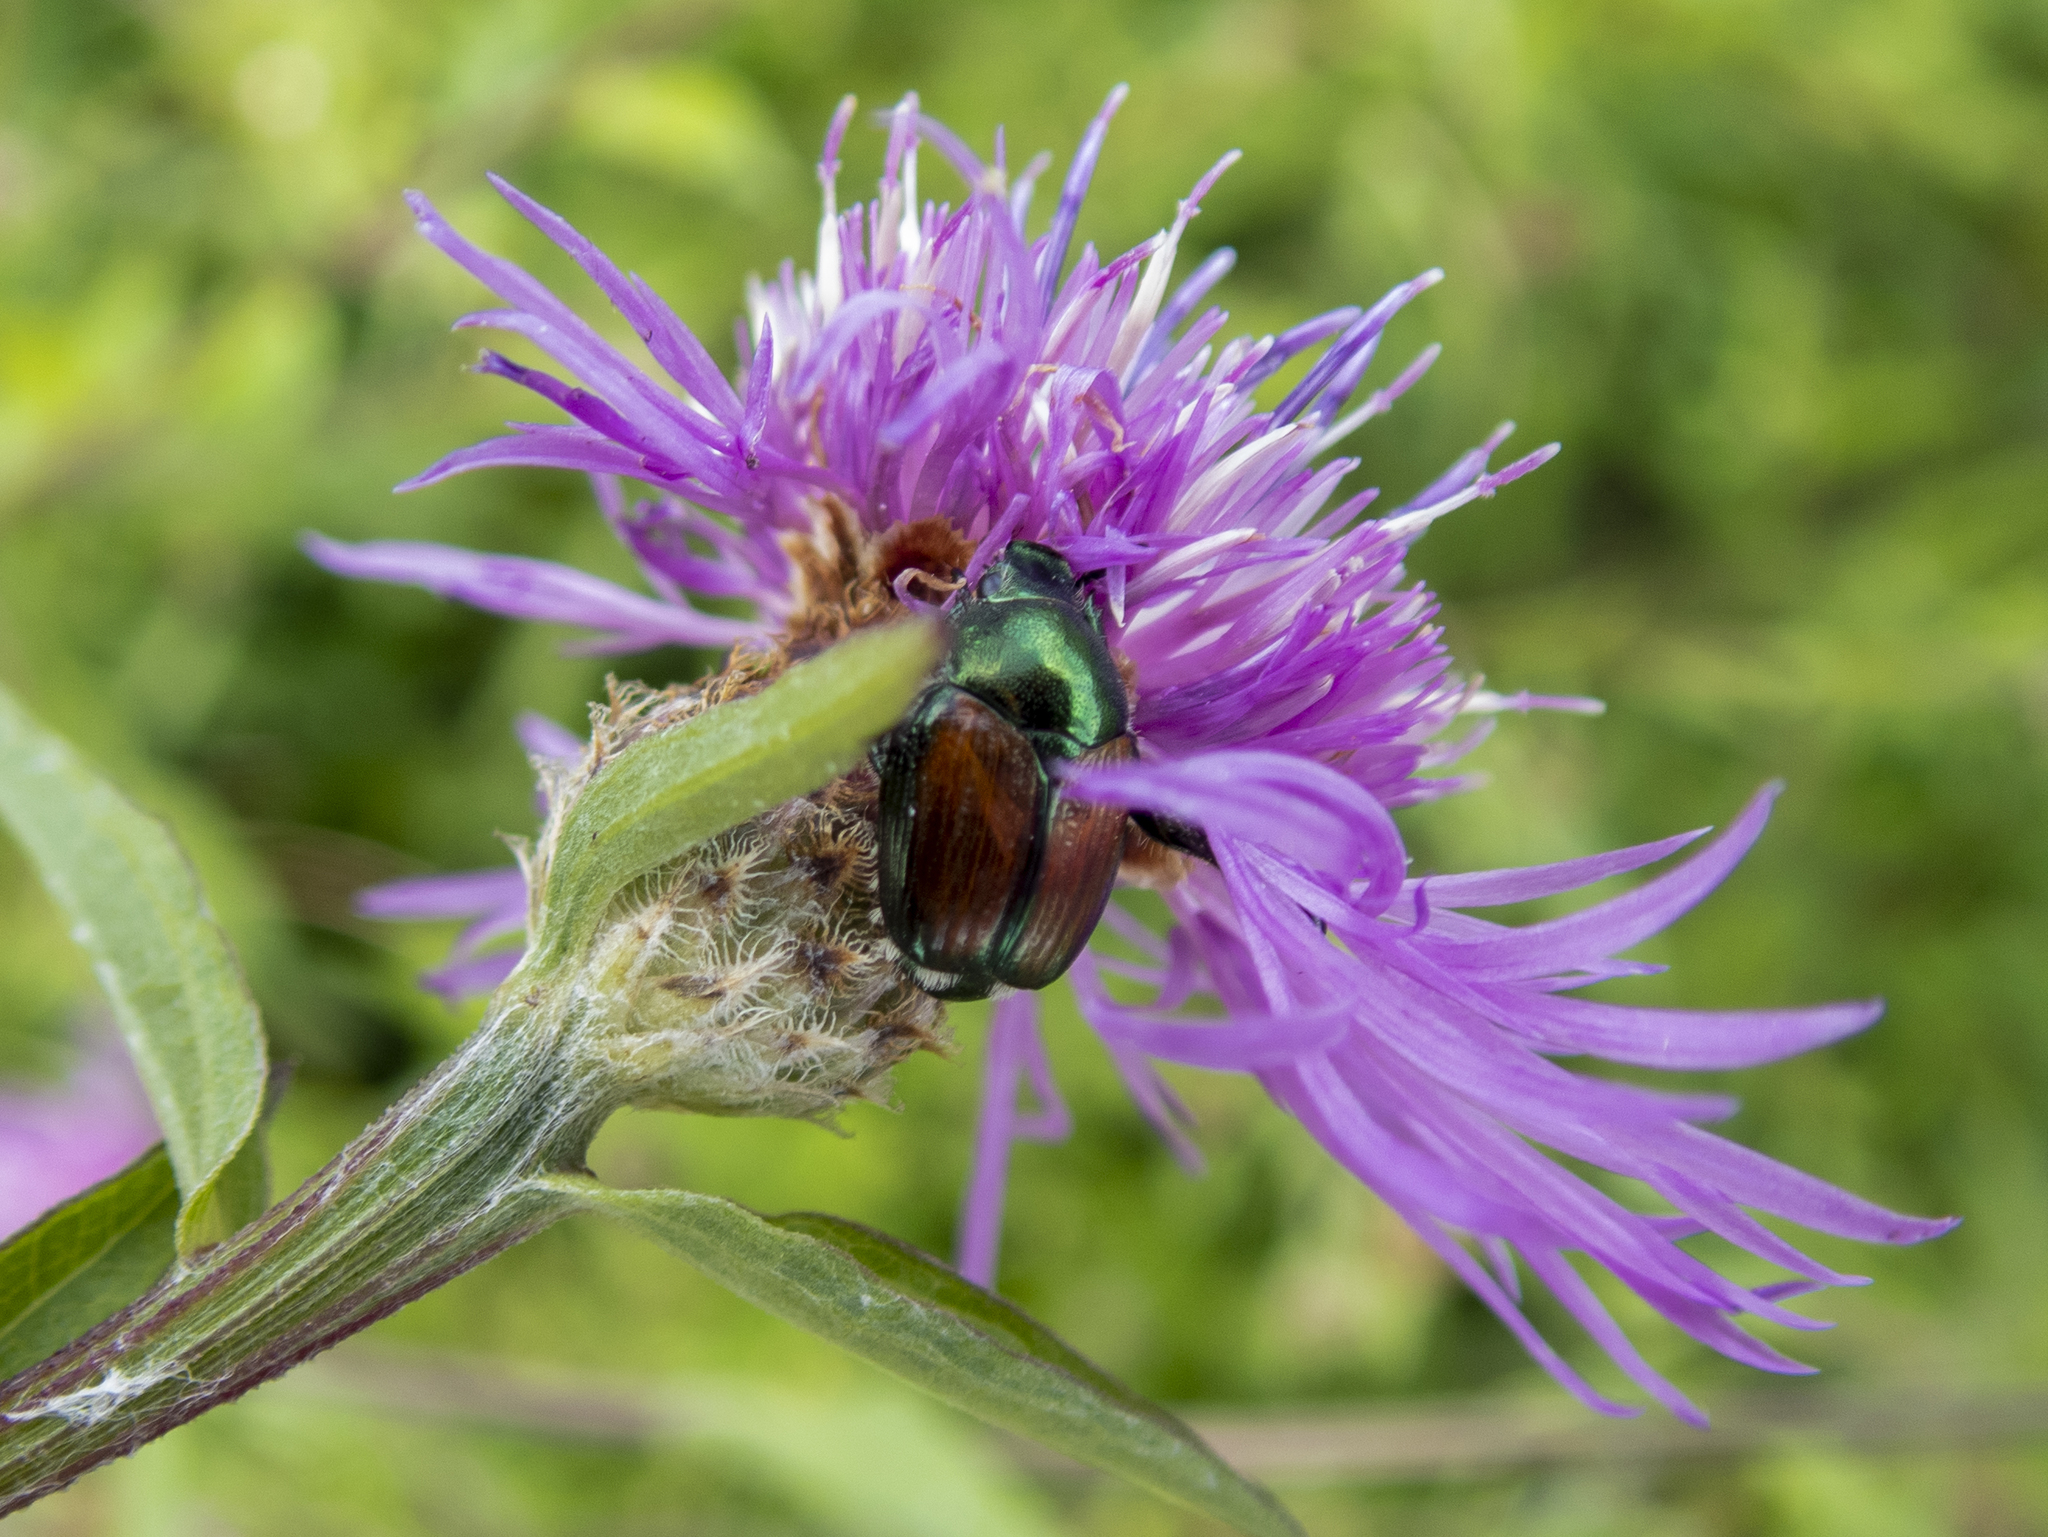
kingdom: Animalia
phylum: Arthropoda
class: Insecta
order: Coleoptera
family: Scarabaeidae
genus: Popillia
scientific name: Popillia japonica
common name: Japanese beetle
